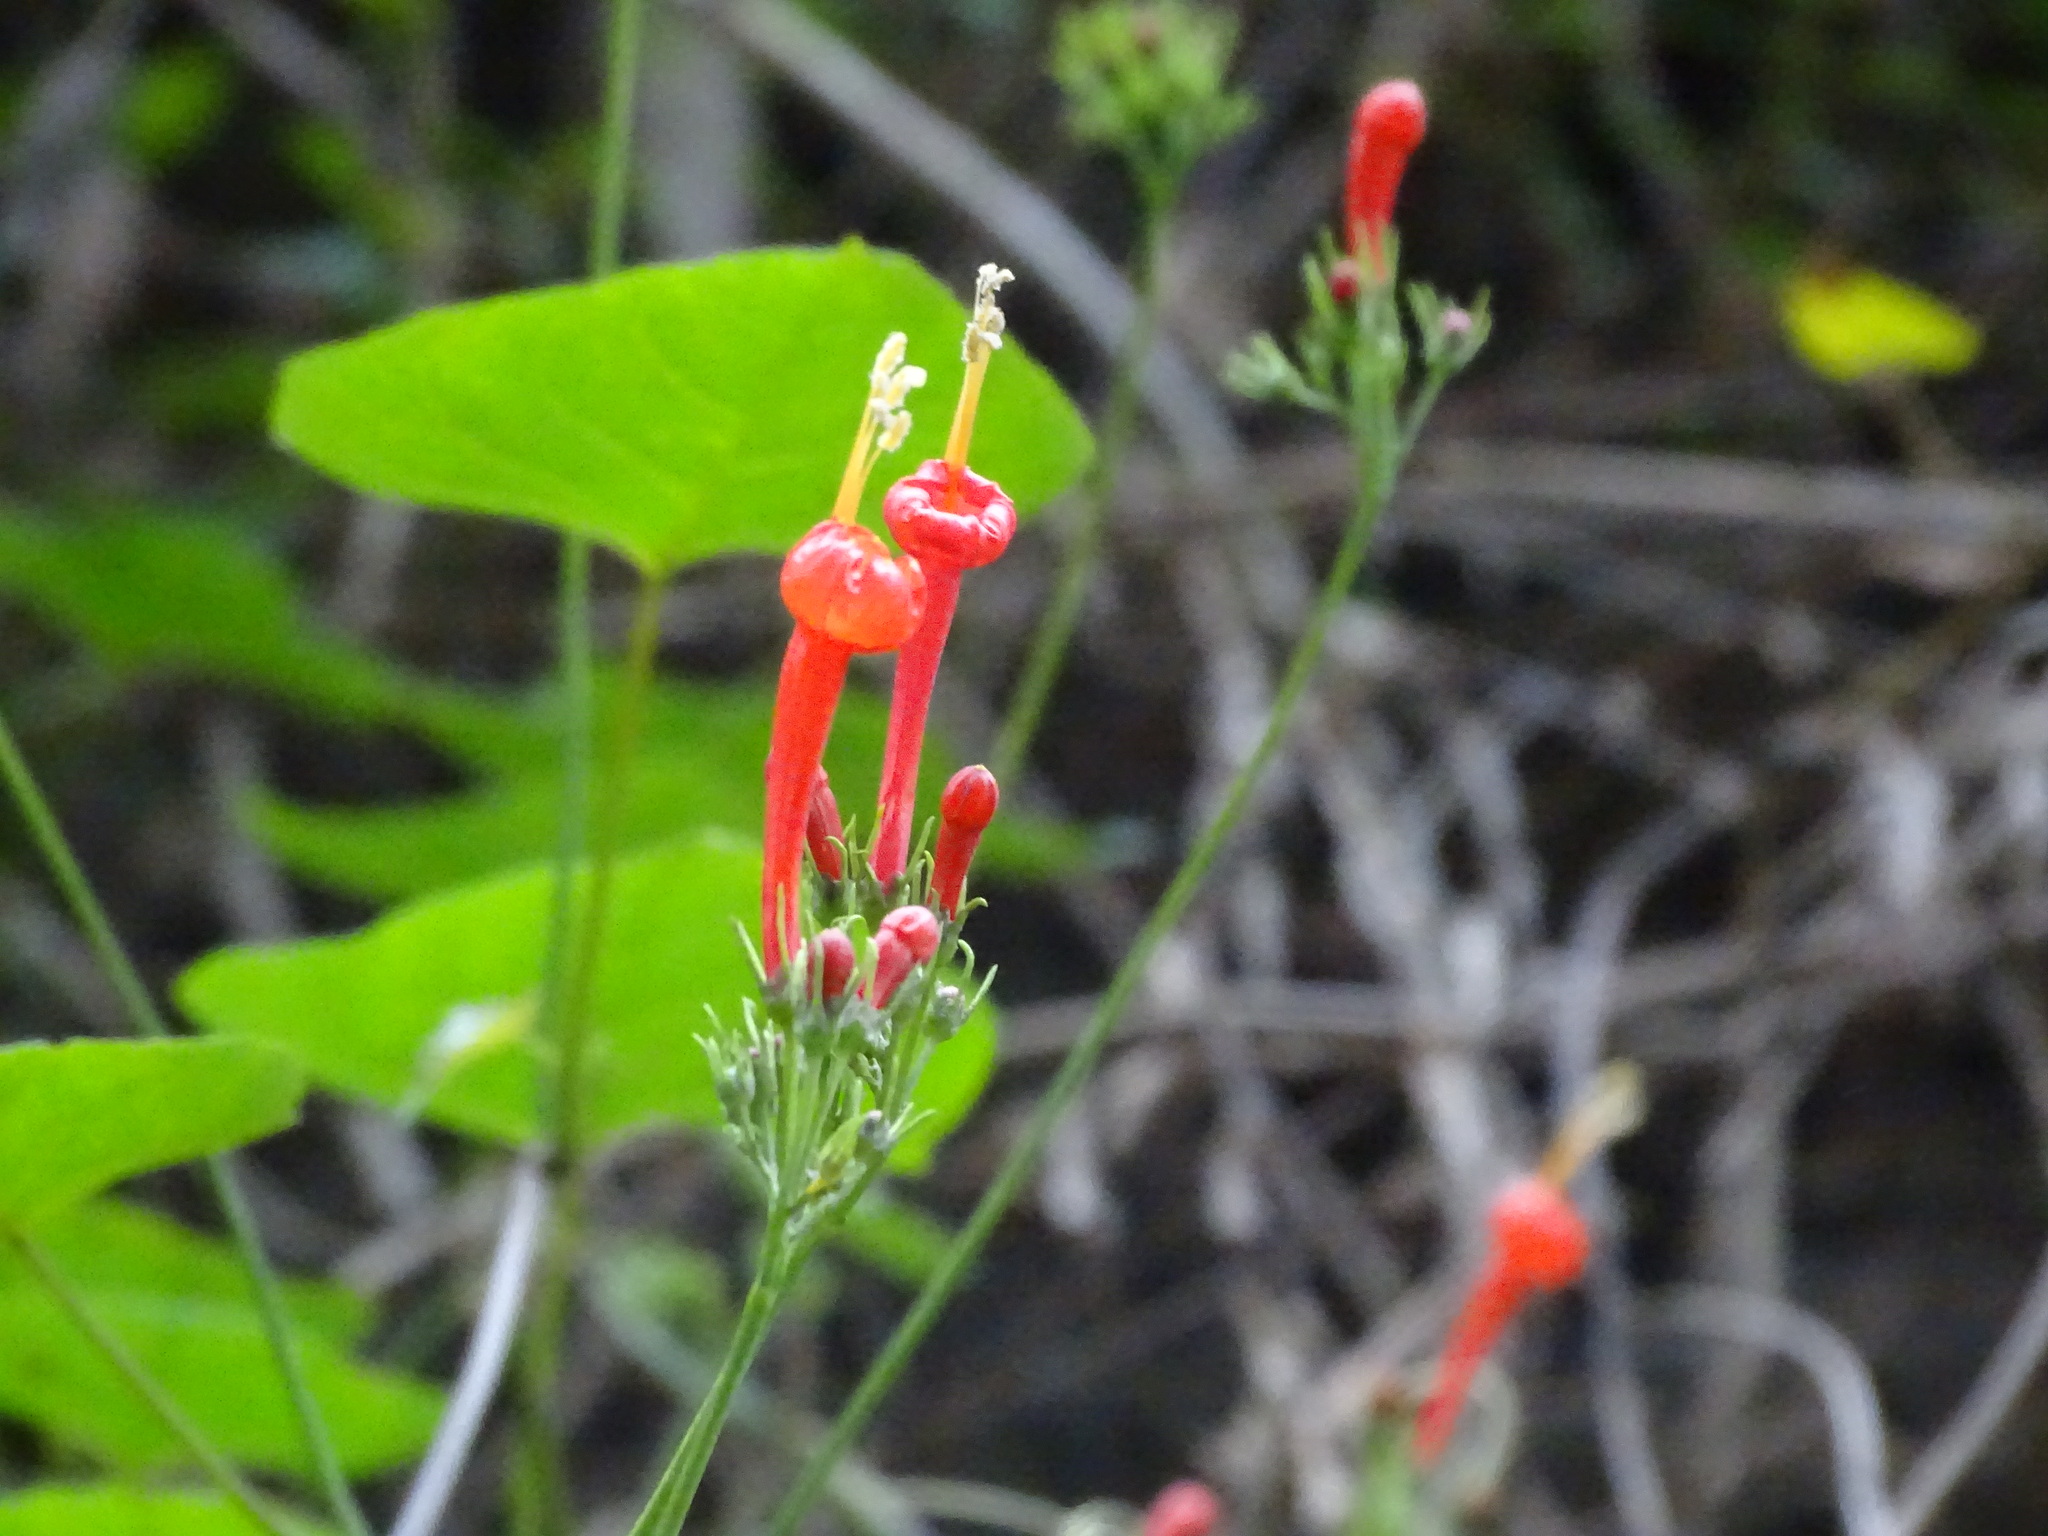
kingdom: Plantae
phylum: Tracheophyta
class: Magnoliopsida
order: Solanales
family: Convolvulaceae
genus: Ipomoea
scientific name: Ipomoea hastigera
